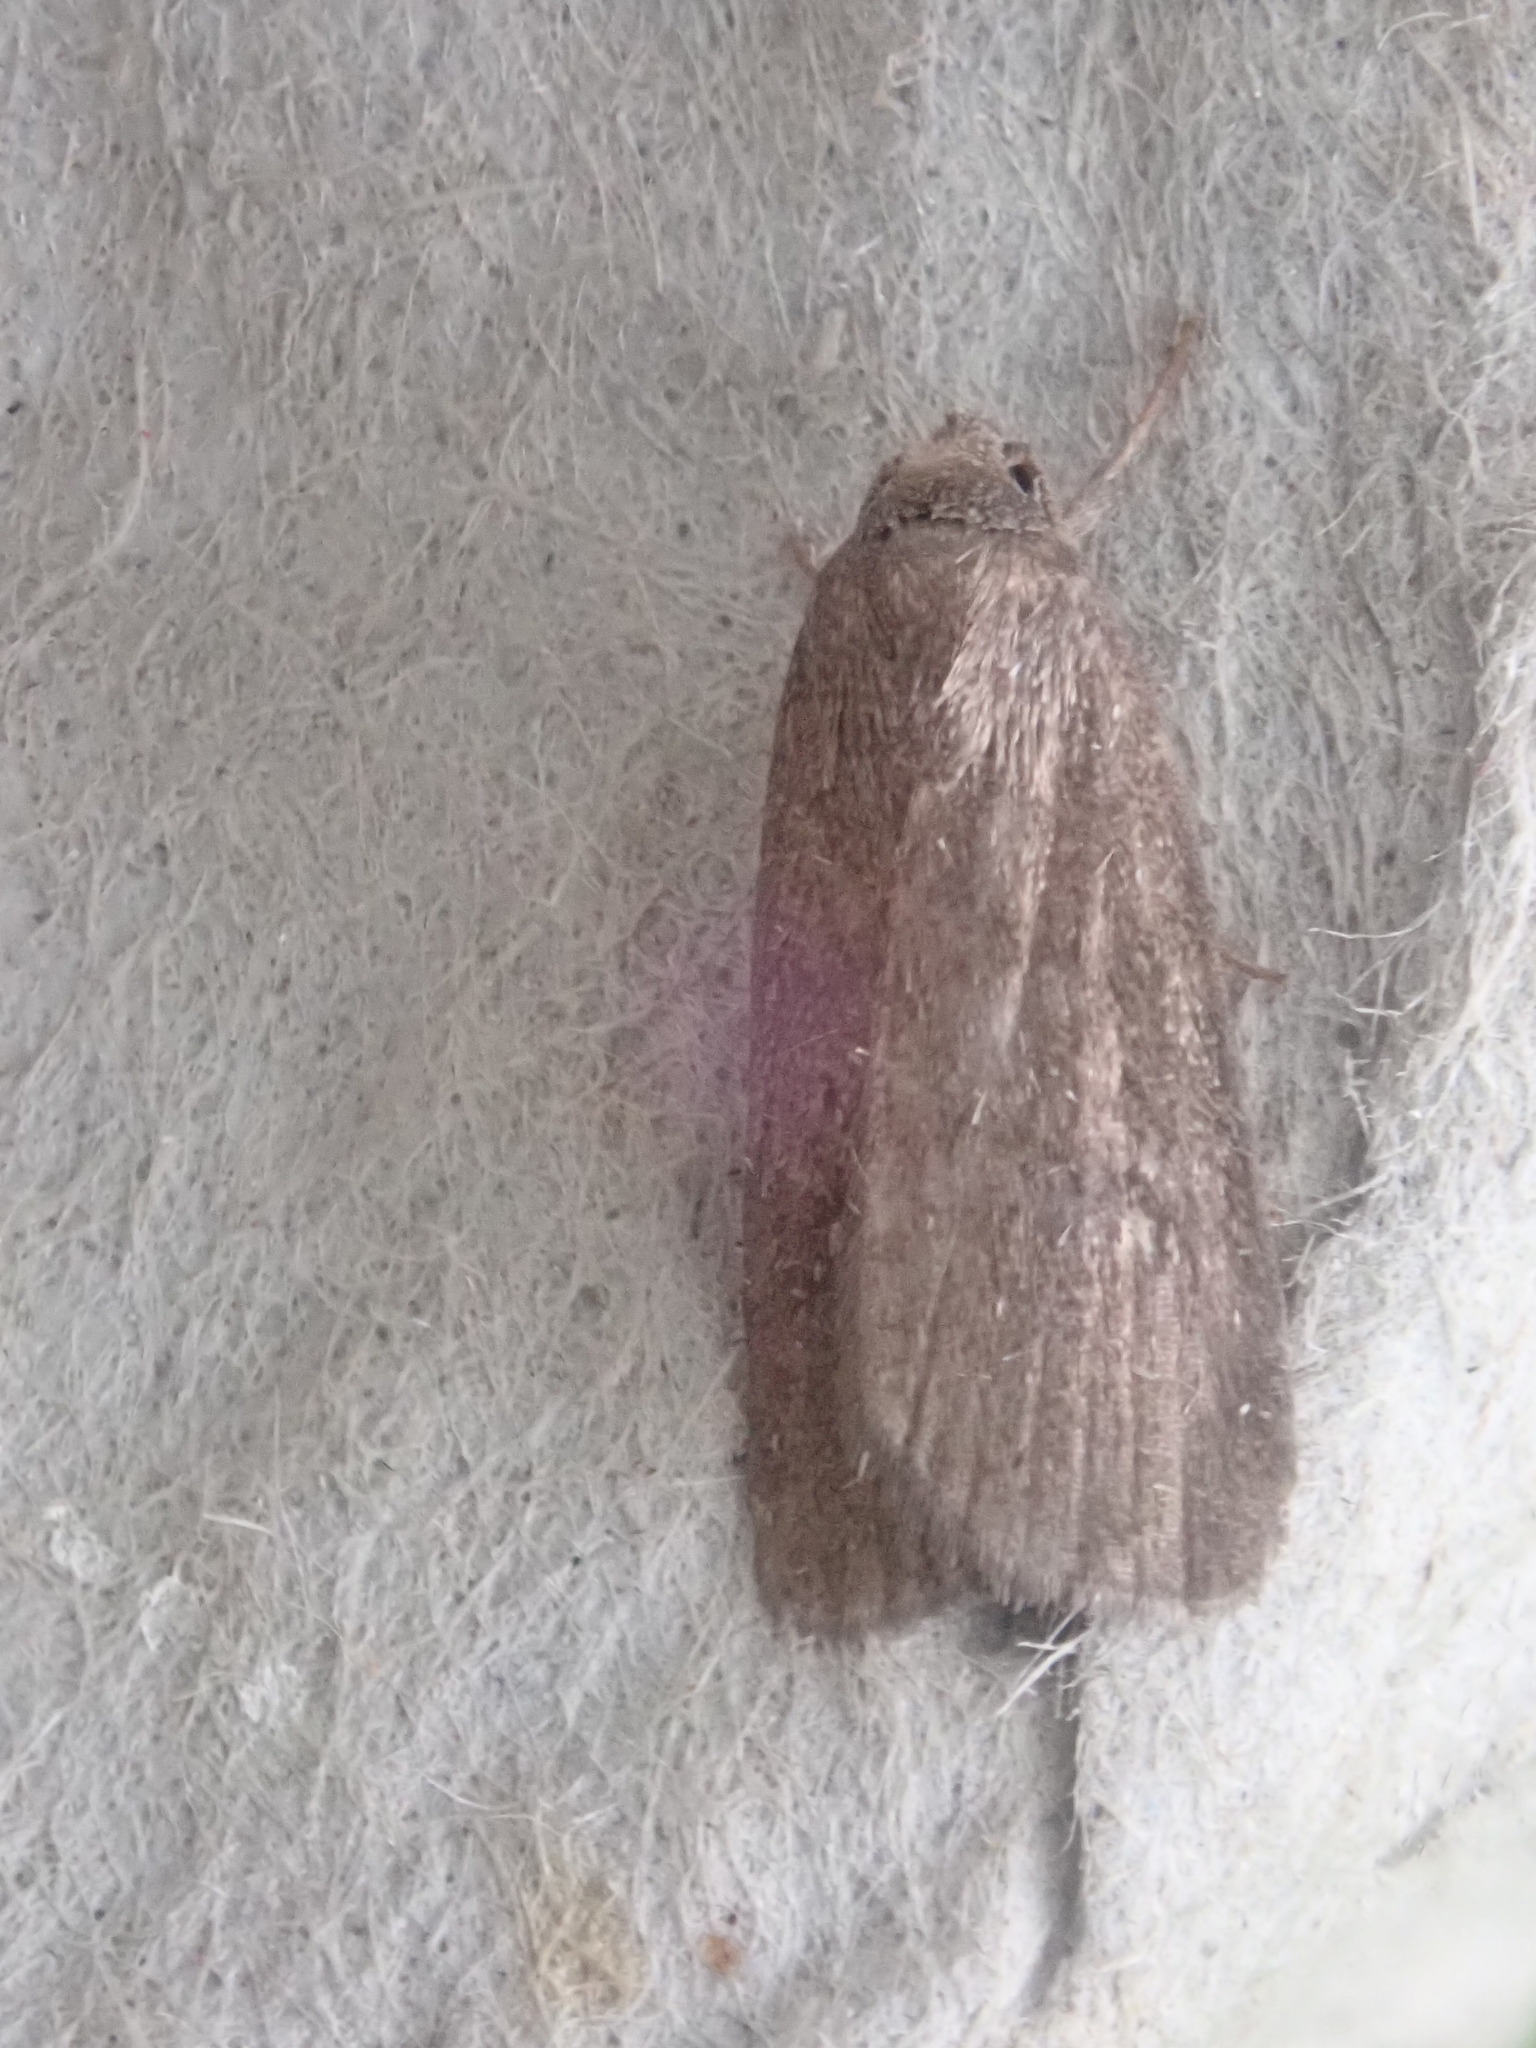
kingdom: Animalia
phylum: Arthropoda
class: Insecta
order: Lepidoptera
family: Noctuidae
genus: Proxenus
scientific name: Proxenus miranda
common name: Miranda moth
